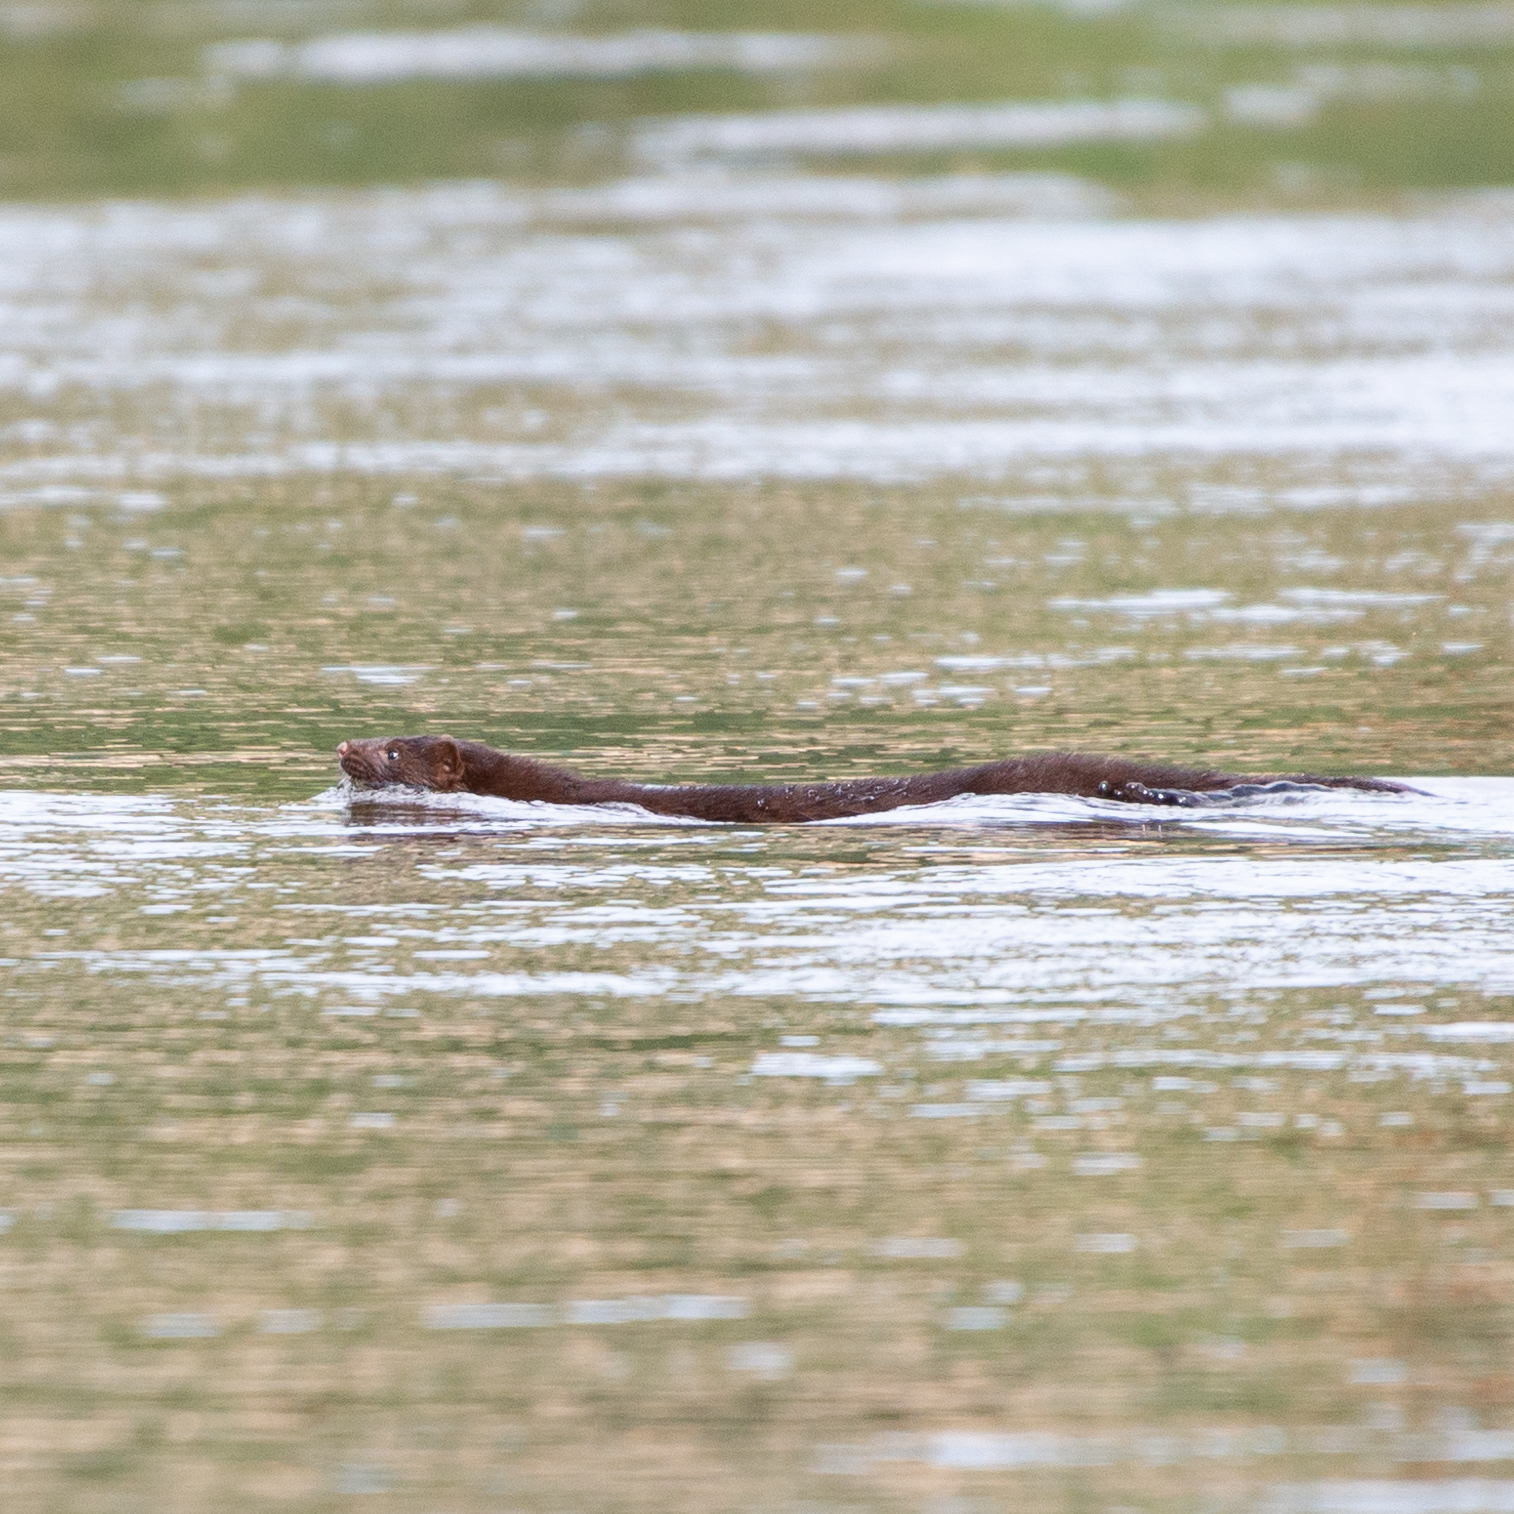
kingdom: Animalia
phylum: Chordata
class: Mammalia
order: Carnivora
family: Mustelidae
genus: Mustela
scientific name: Mustela
